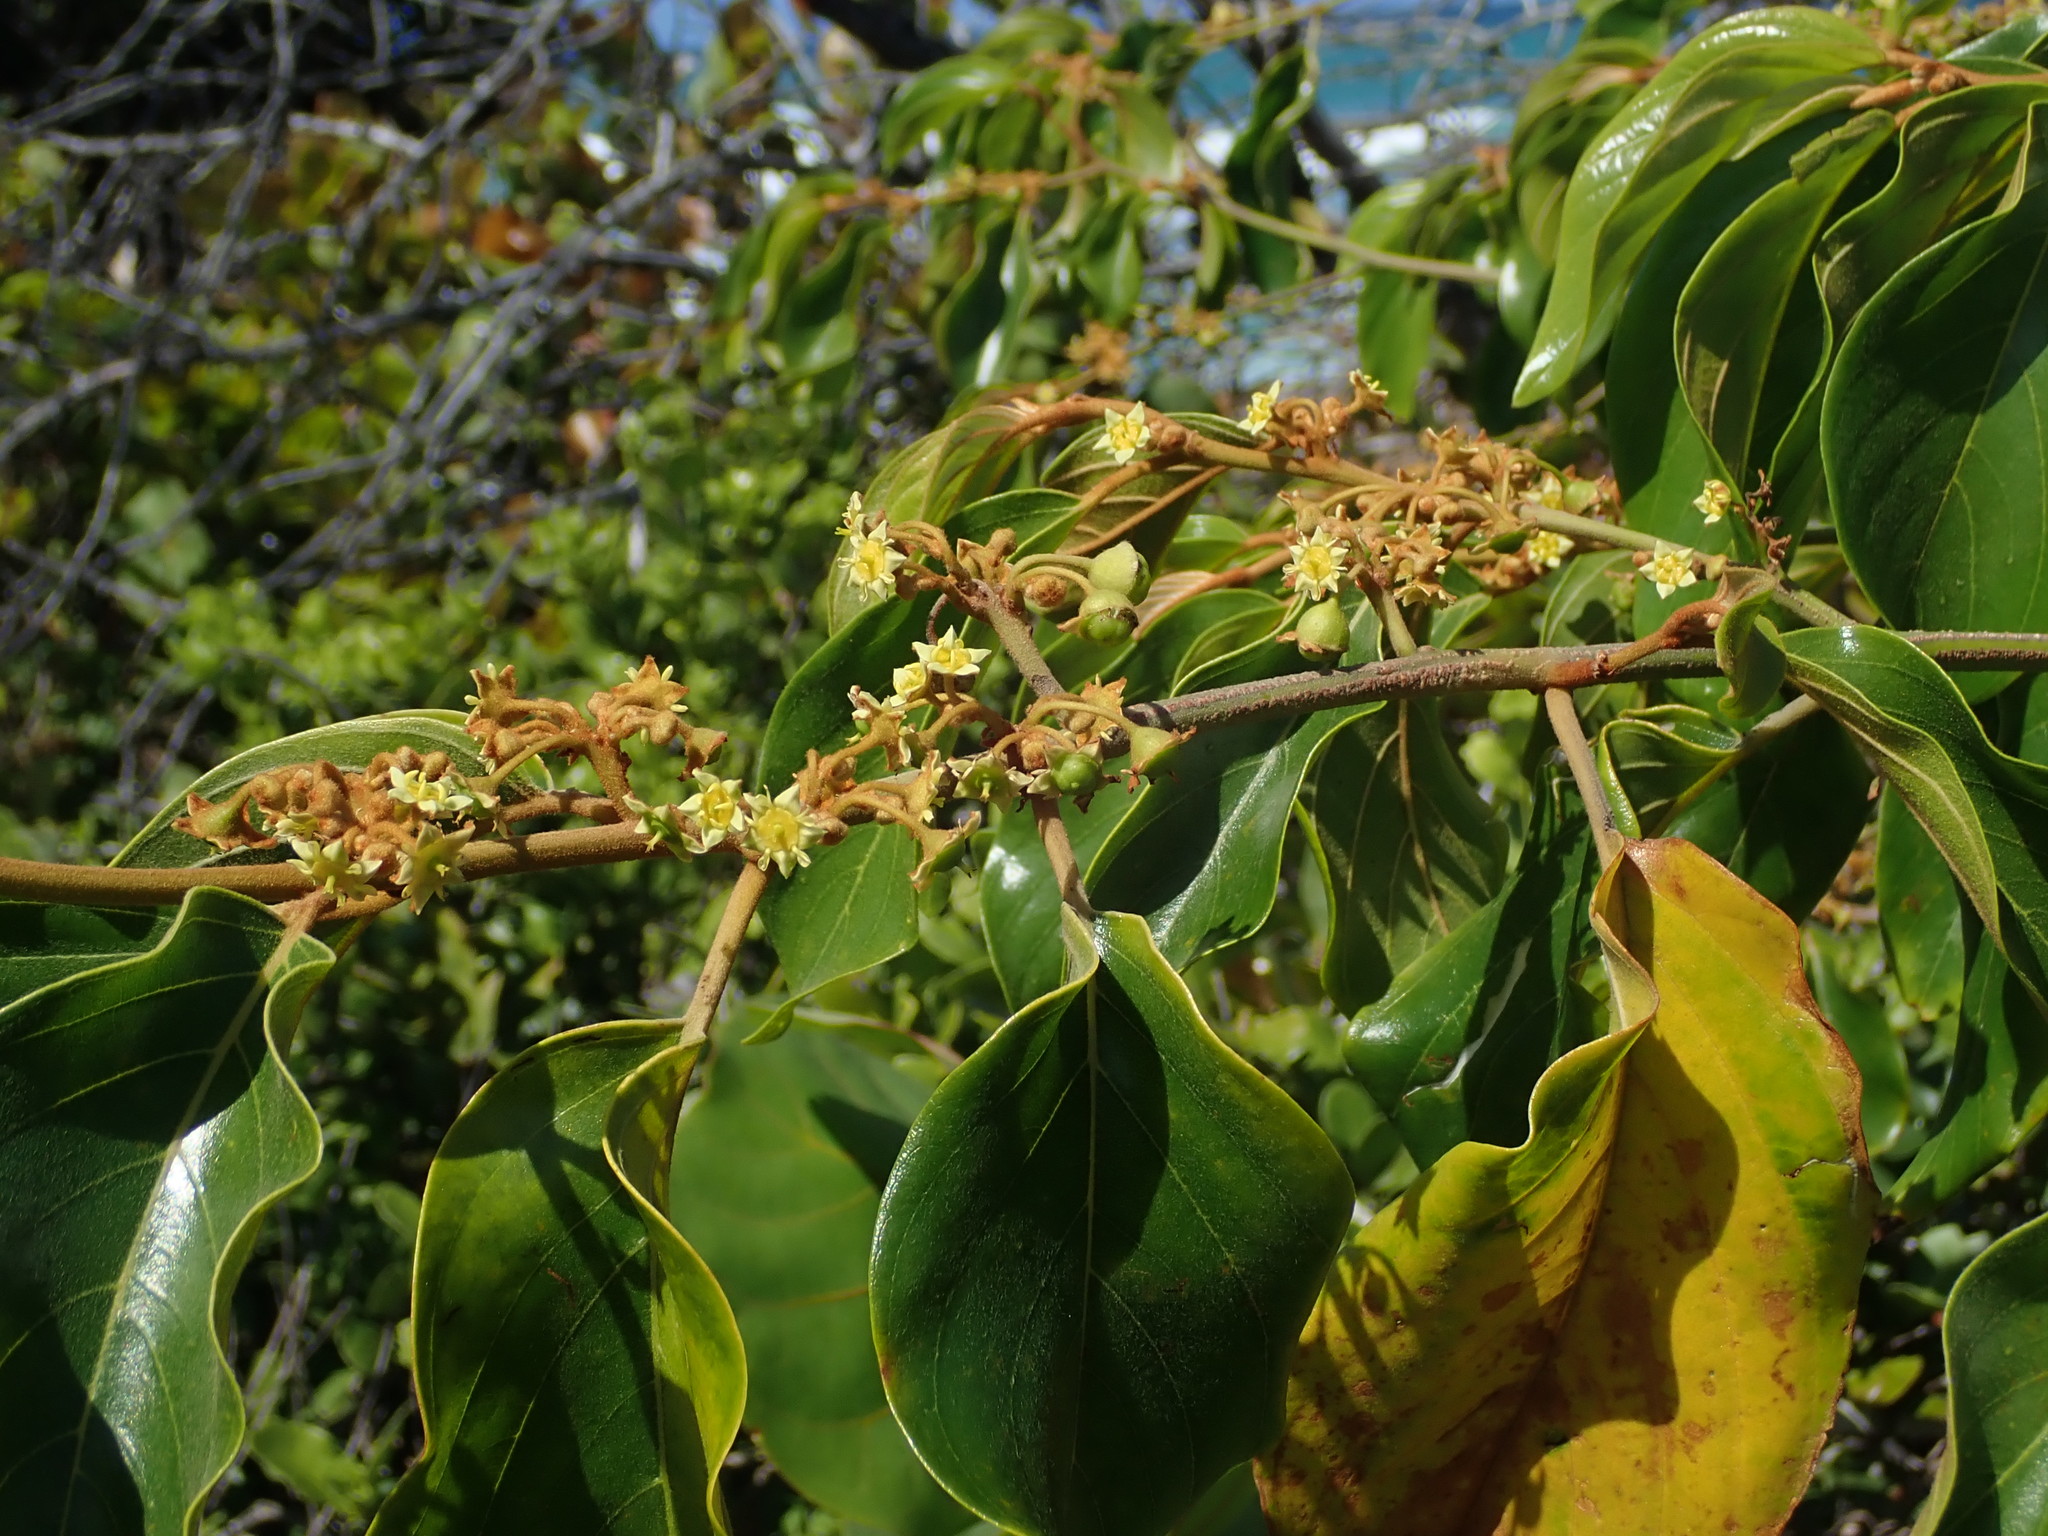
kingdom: Plantae
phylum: Tracheophyta
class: Magnoliopsida
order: Rosales
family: Rhamnaceae
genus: Colubrina
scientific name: Colubrina arborescens
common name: Wild coffee
